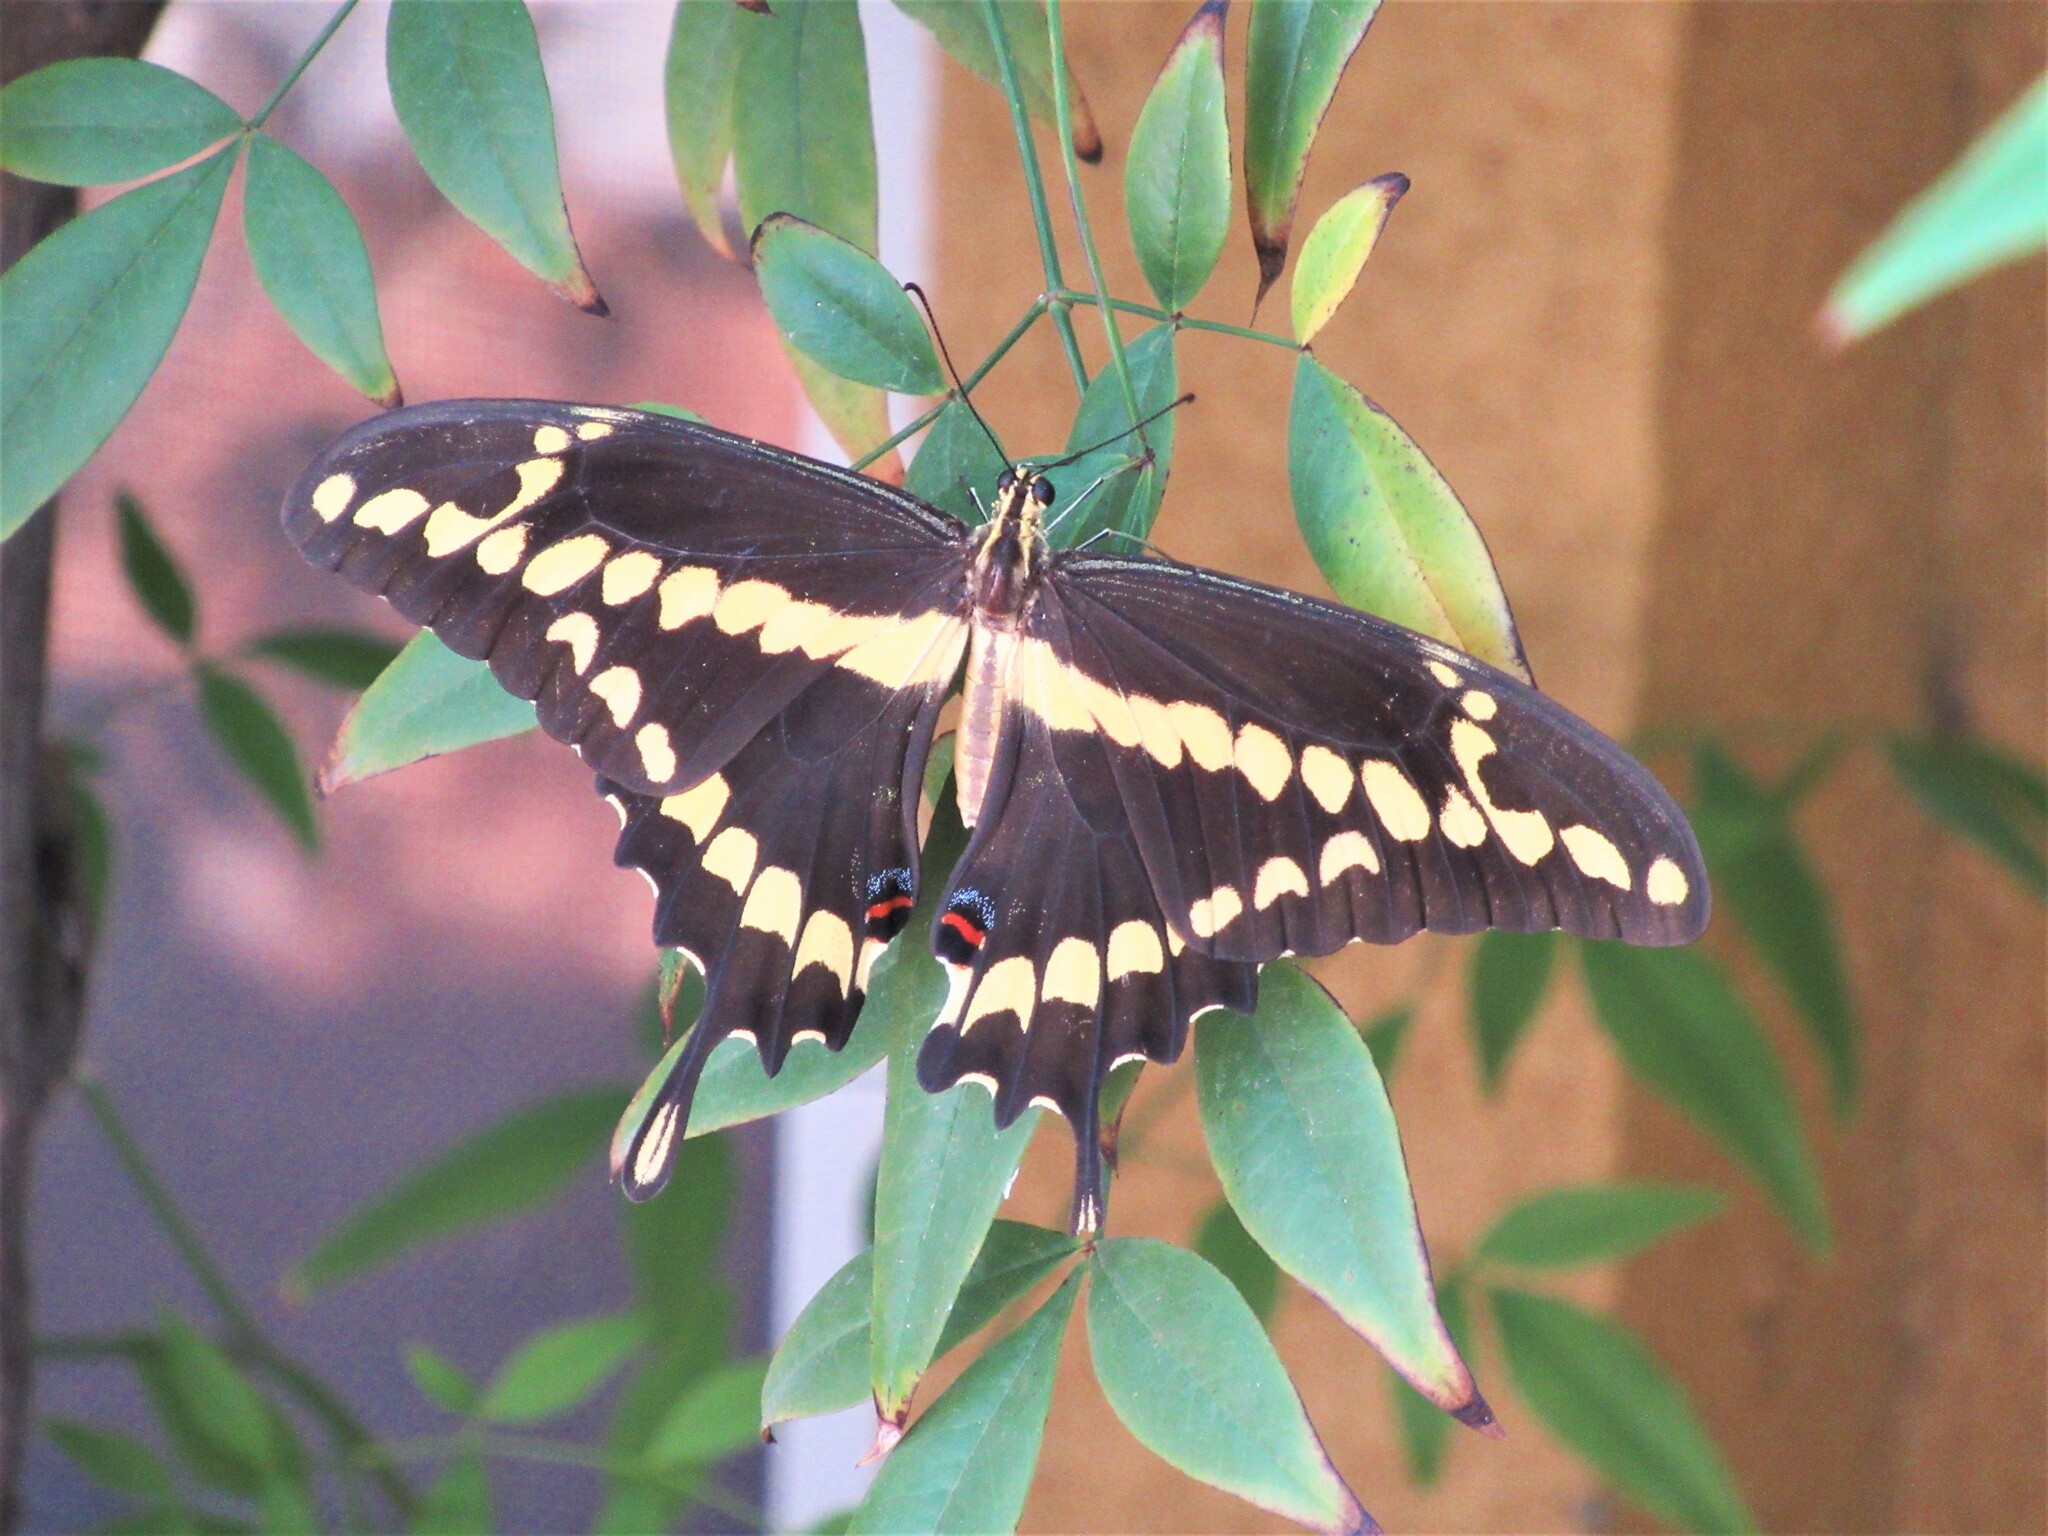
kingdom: Animalia
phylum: Arthropoda
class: Insecta
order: Lepidoptera
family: Papilionidae
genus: Papilio
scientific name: Papilio rumiko
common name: Western giant swallowtail
